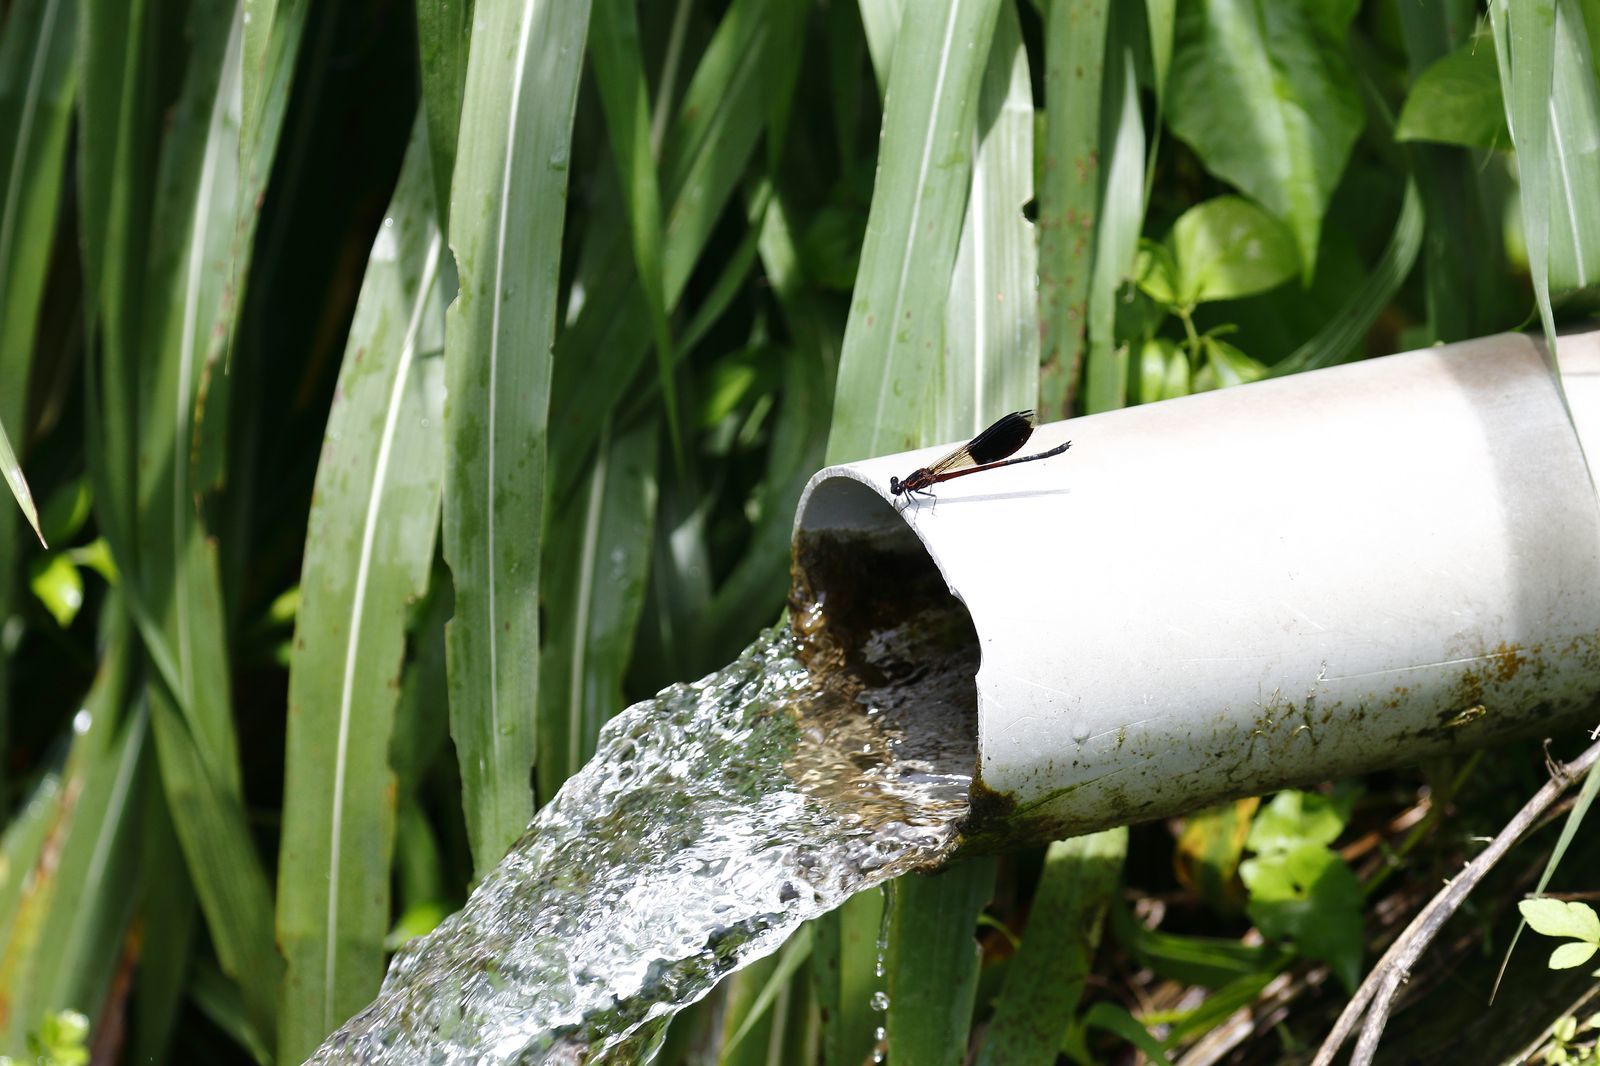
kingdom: Animalia
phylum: Arthropoda
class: Insecta
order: Odonata
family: Euphaeidae
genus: Euphaea
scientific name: Euphaea formosa
